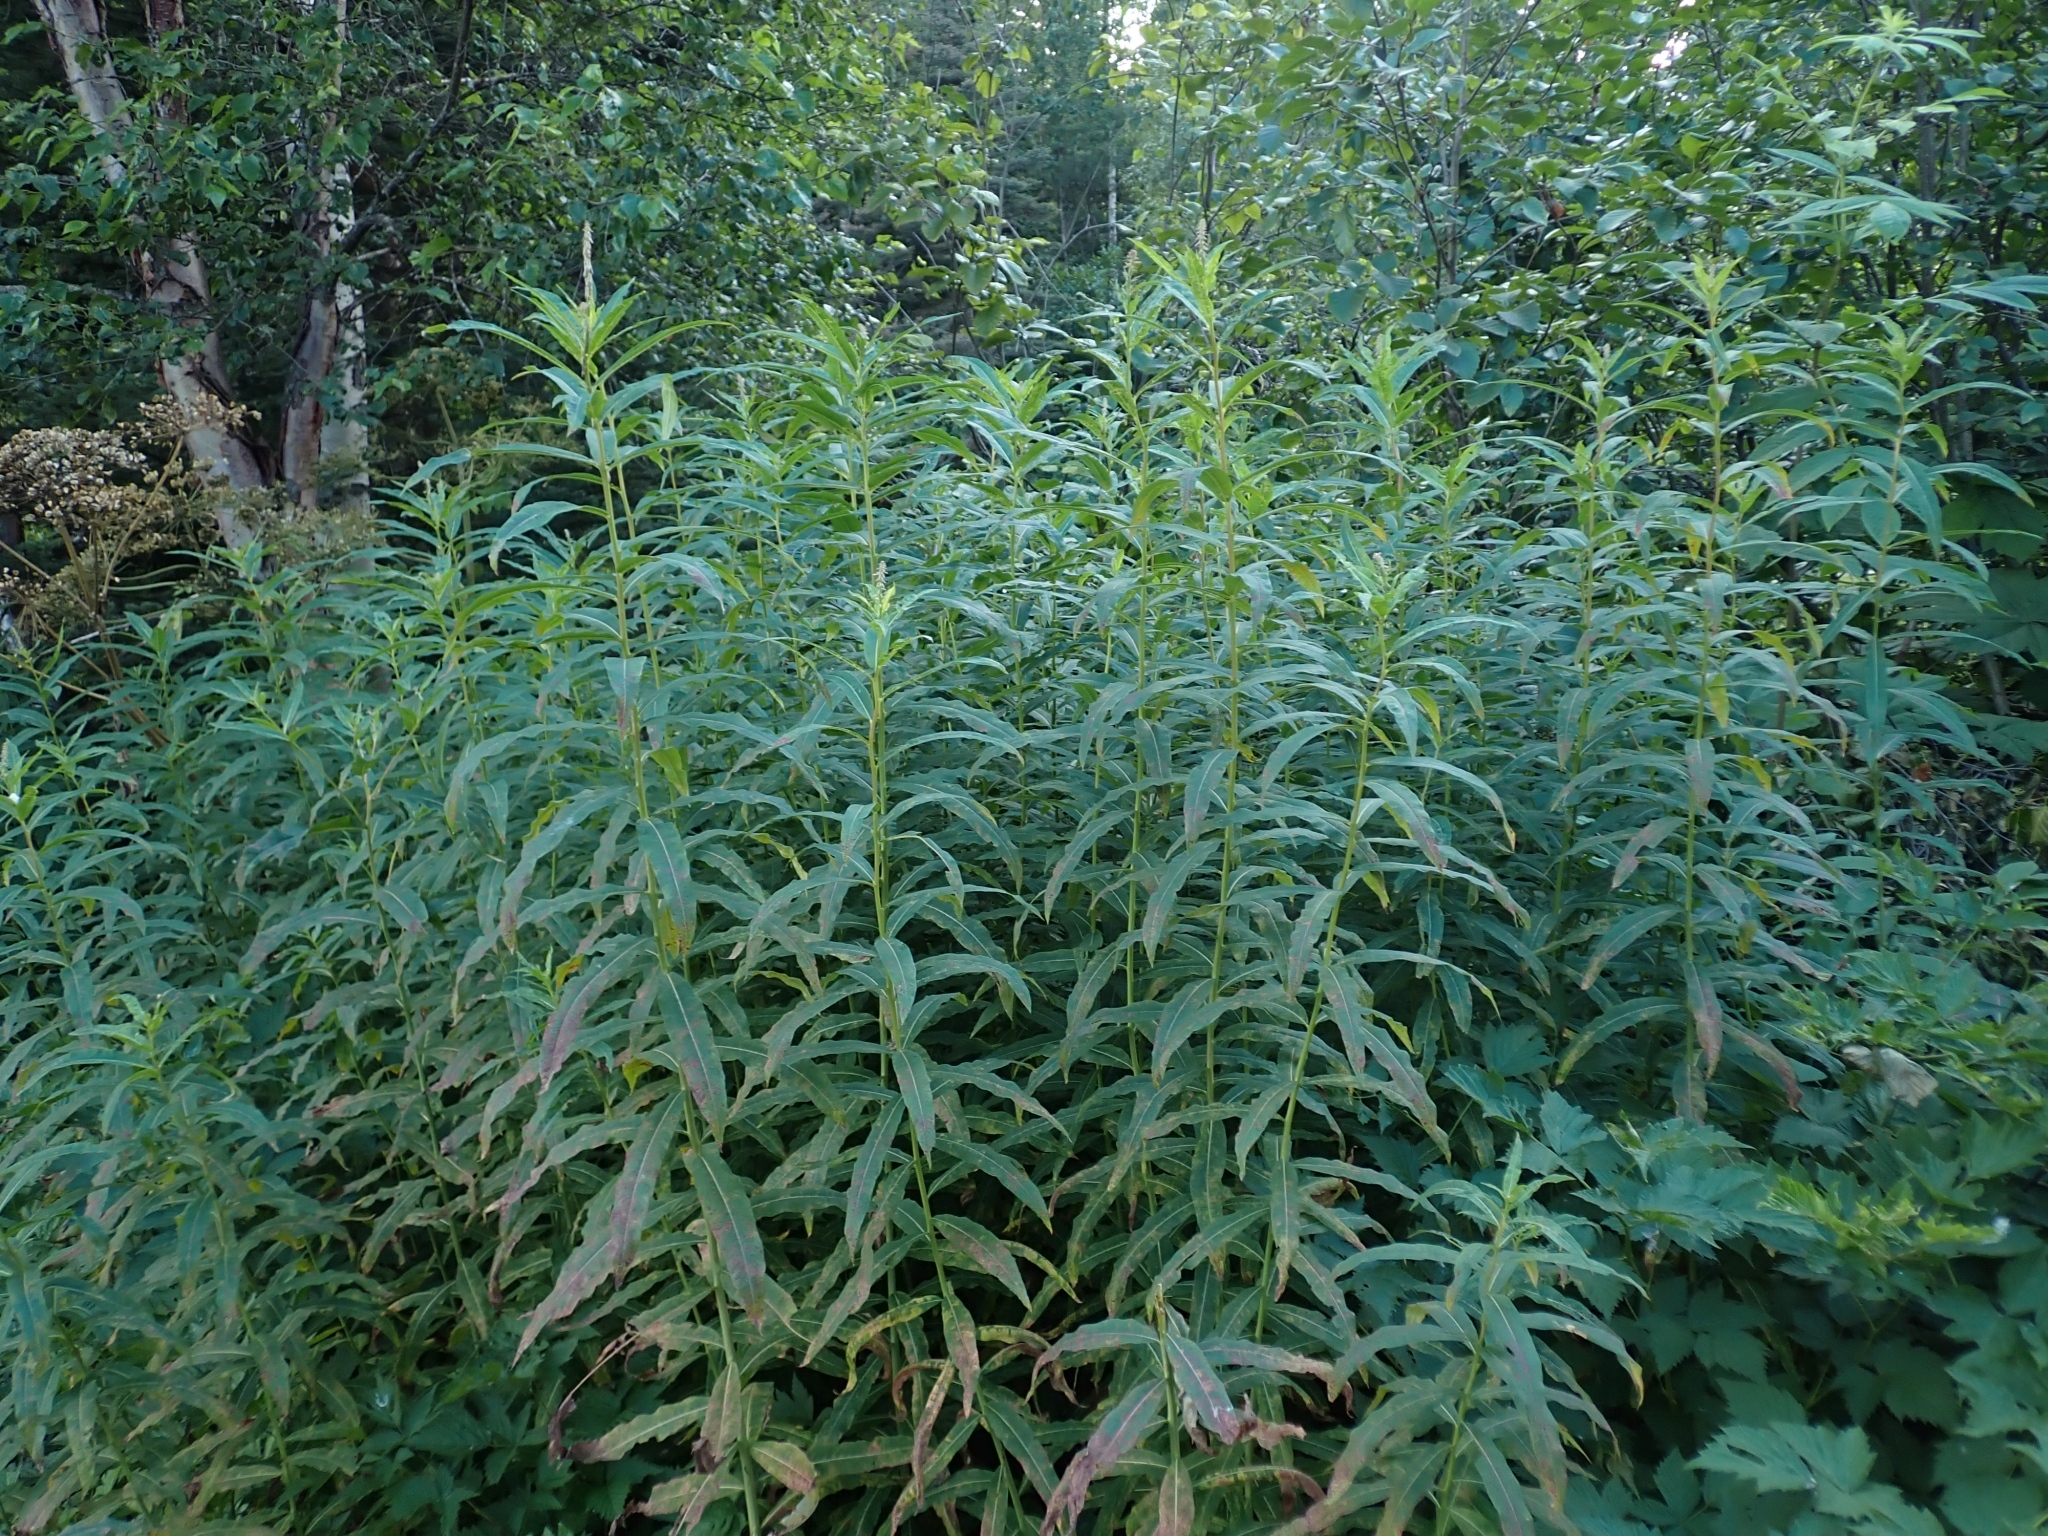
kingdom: Plantae
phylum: Tracheophyta
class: Magnoliopsida
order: Myrtales
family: Onagraceae
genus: Chamaenerion
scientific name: Chamaenerion angustifolium
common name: Fireweed
